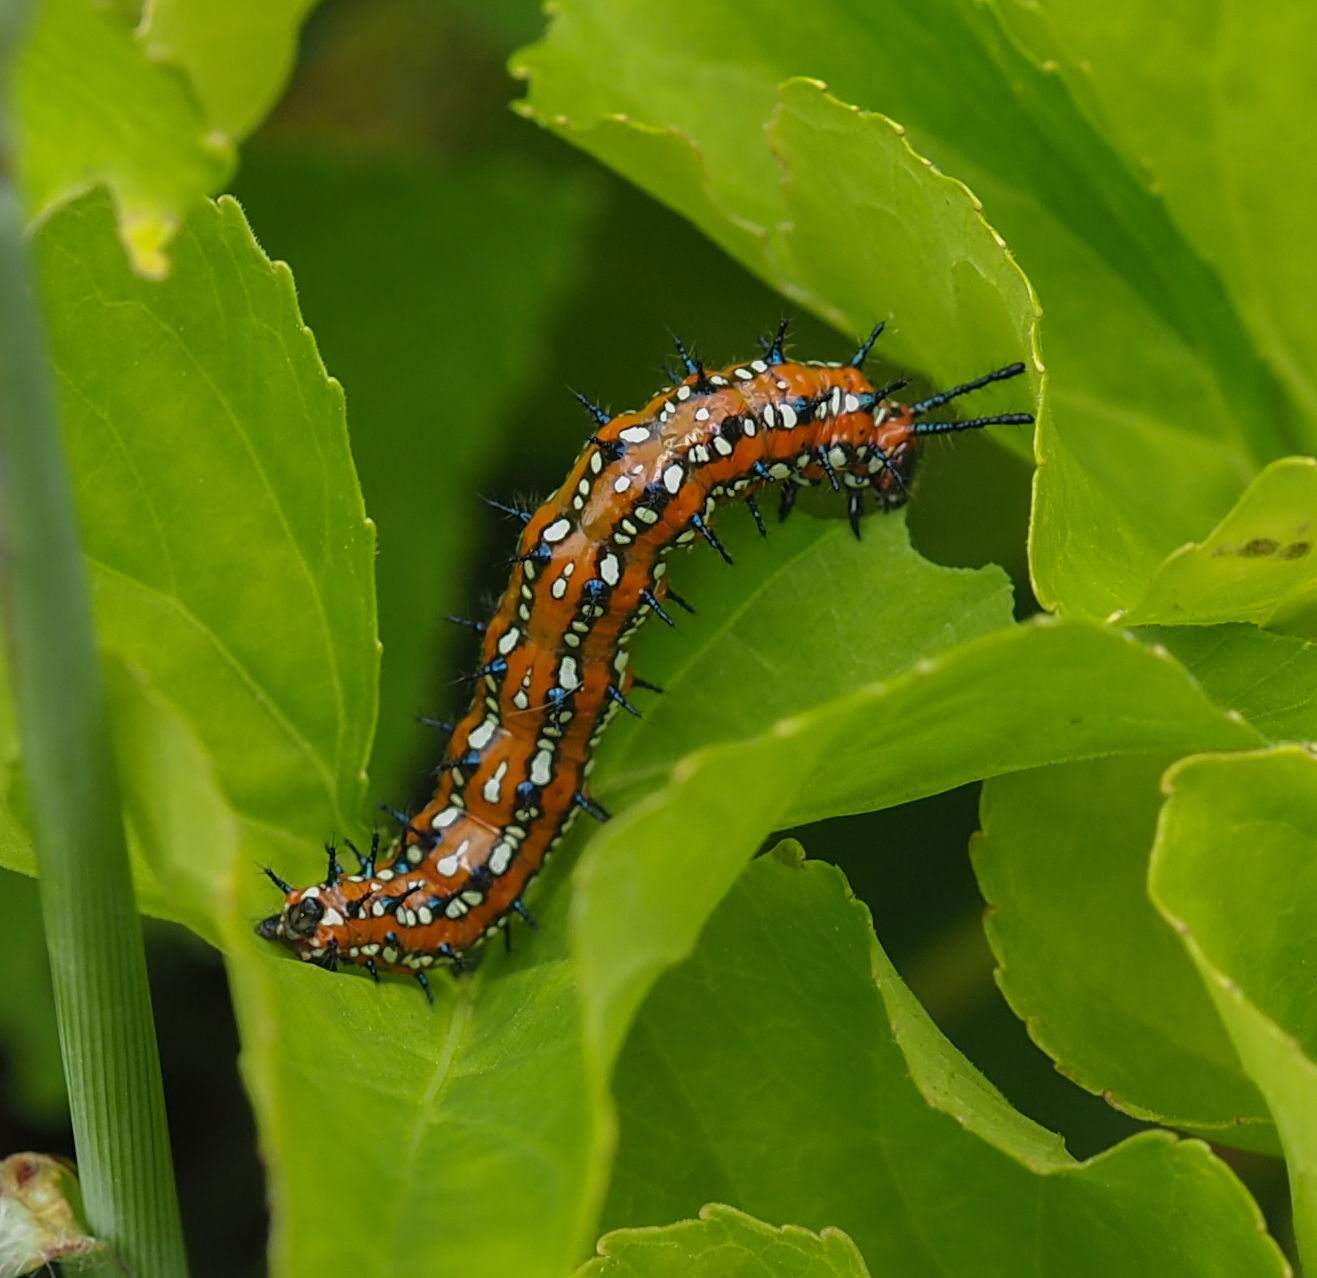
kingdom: Animalia
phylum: Arthropoda
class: Insecta
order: Lepidoptera
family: Nymphalidae
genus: Euptoieta
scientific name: Euptoieta claudia
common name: Variegated fritillary
